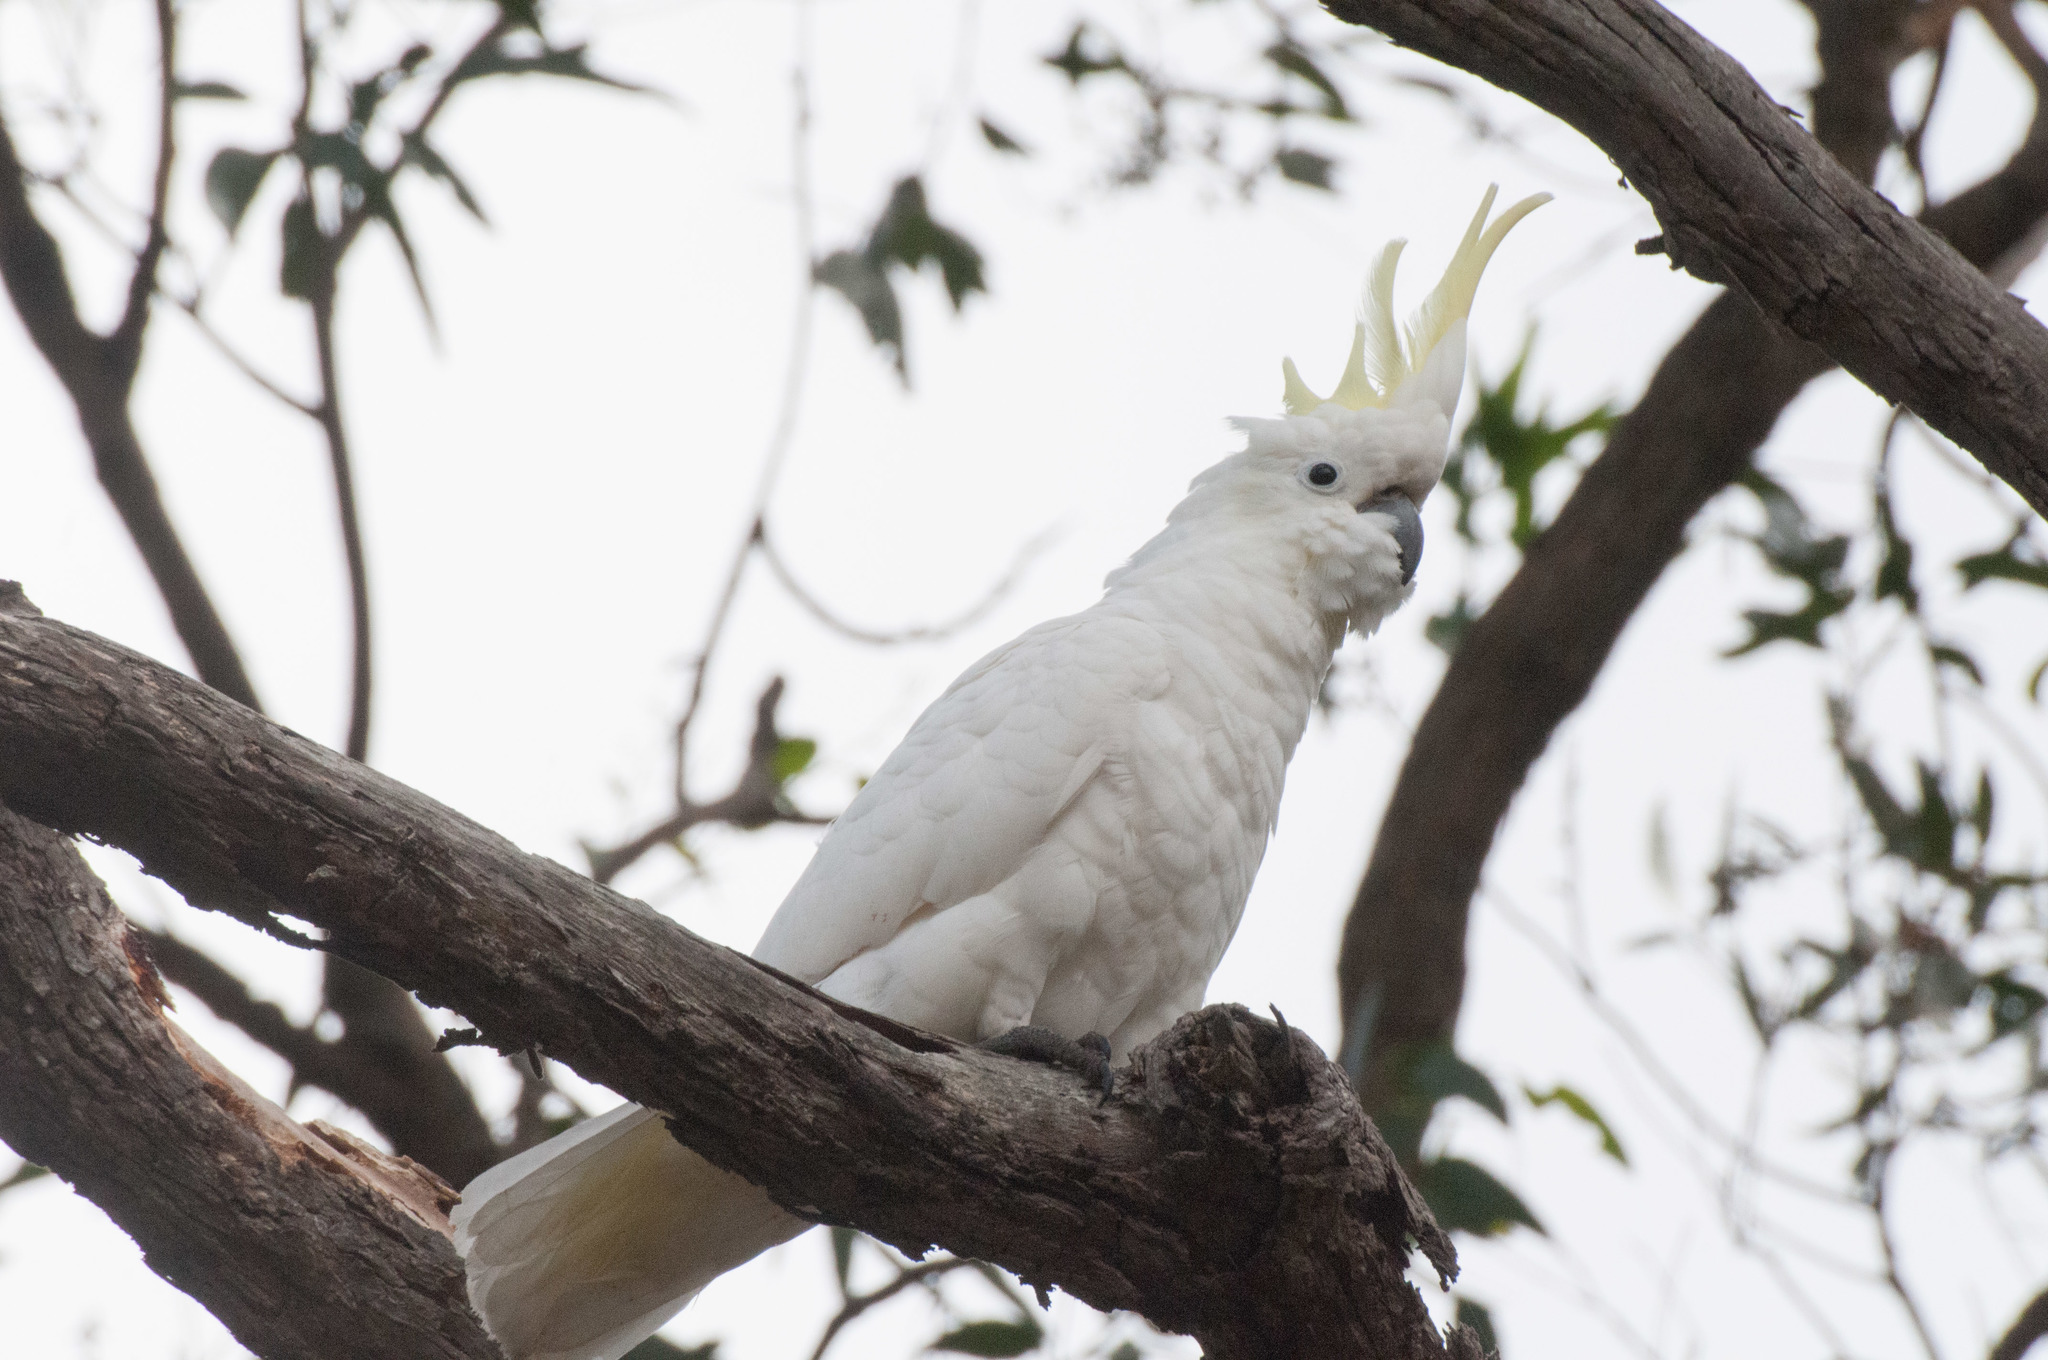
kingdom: Animalia
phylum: Chordata
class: Aves
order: Psittaciformes
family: Psittacidae
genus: Cacatua
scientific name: Cacatua galerita
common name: Sulphur-crested cockatoo
